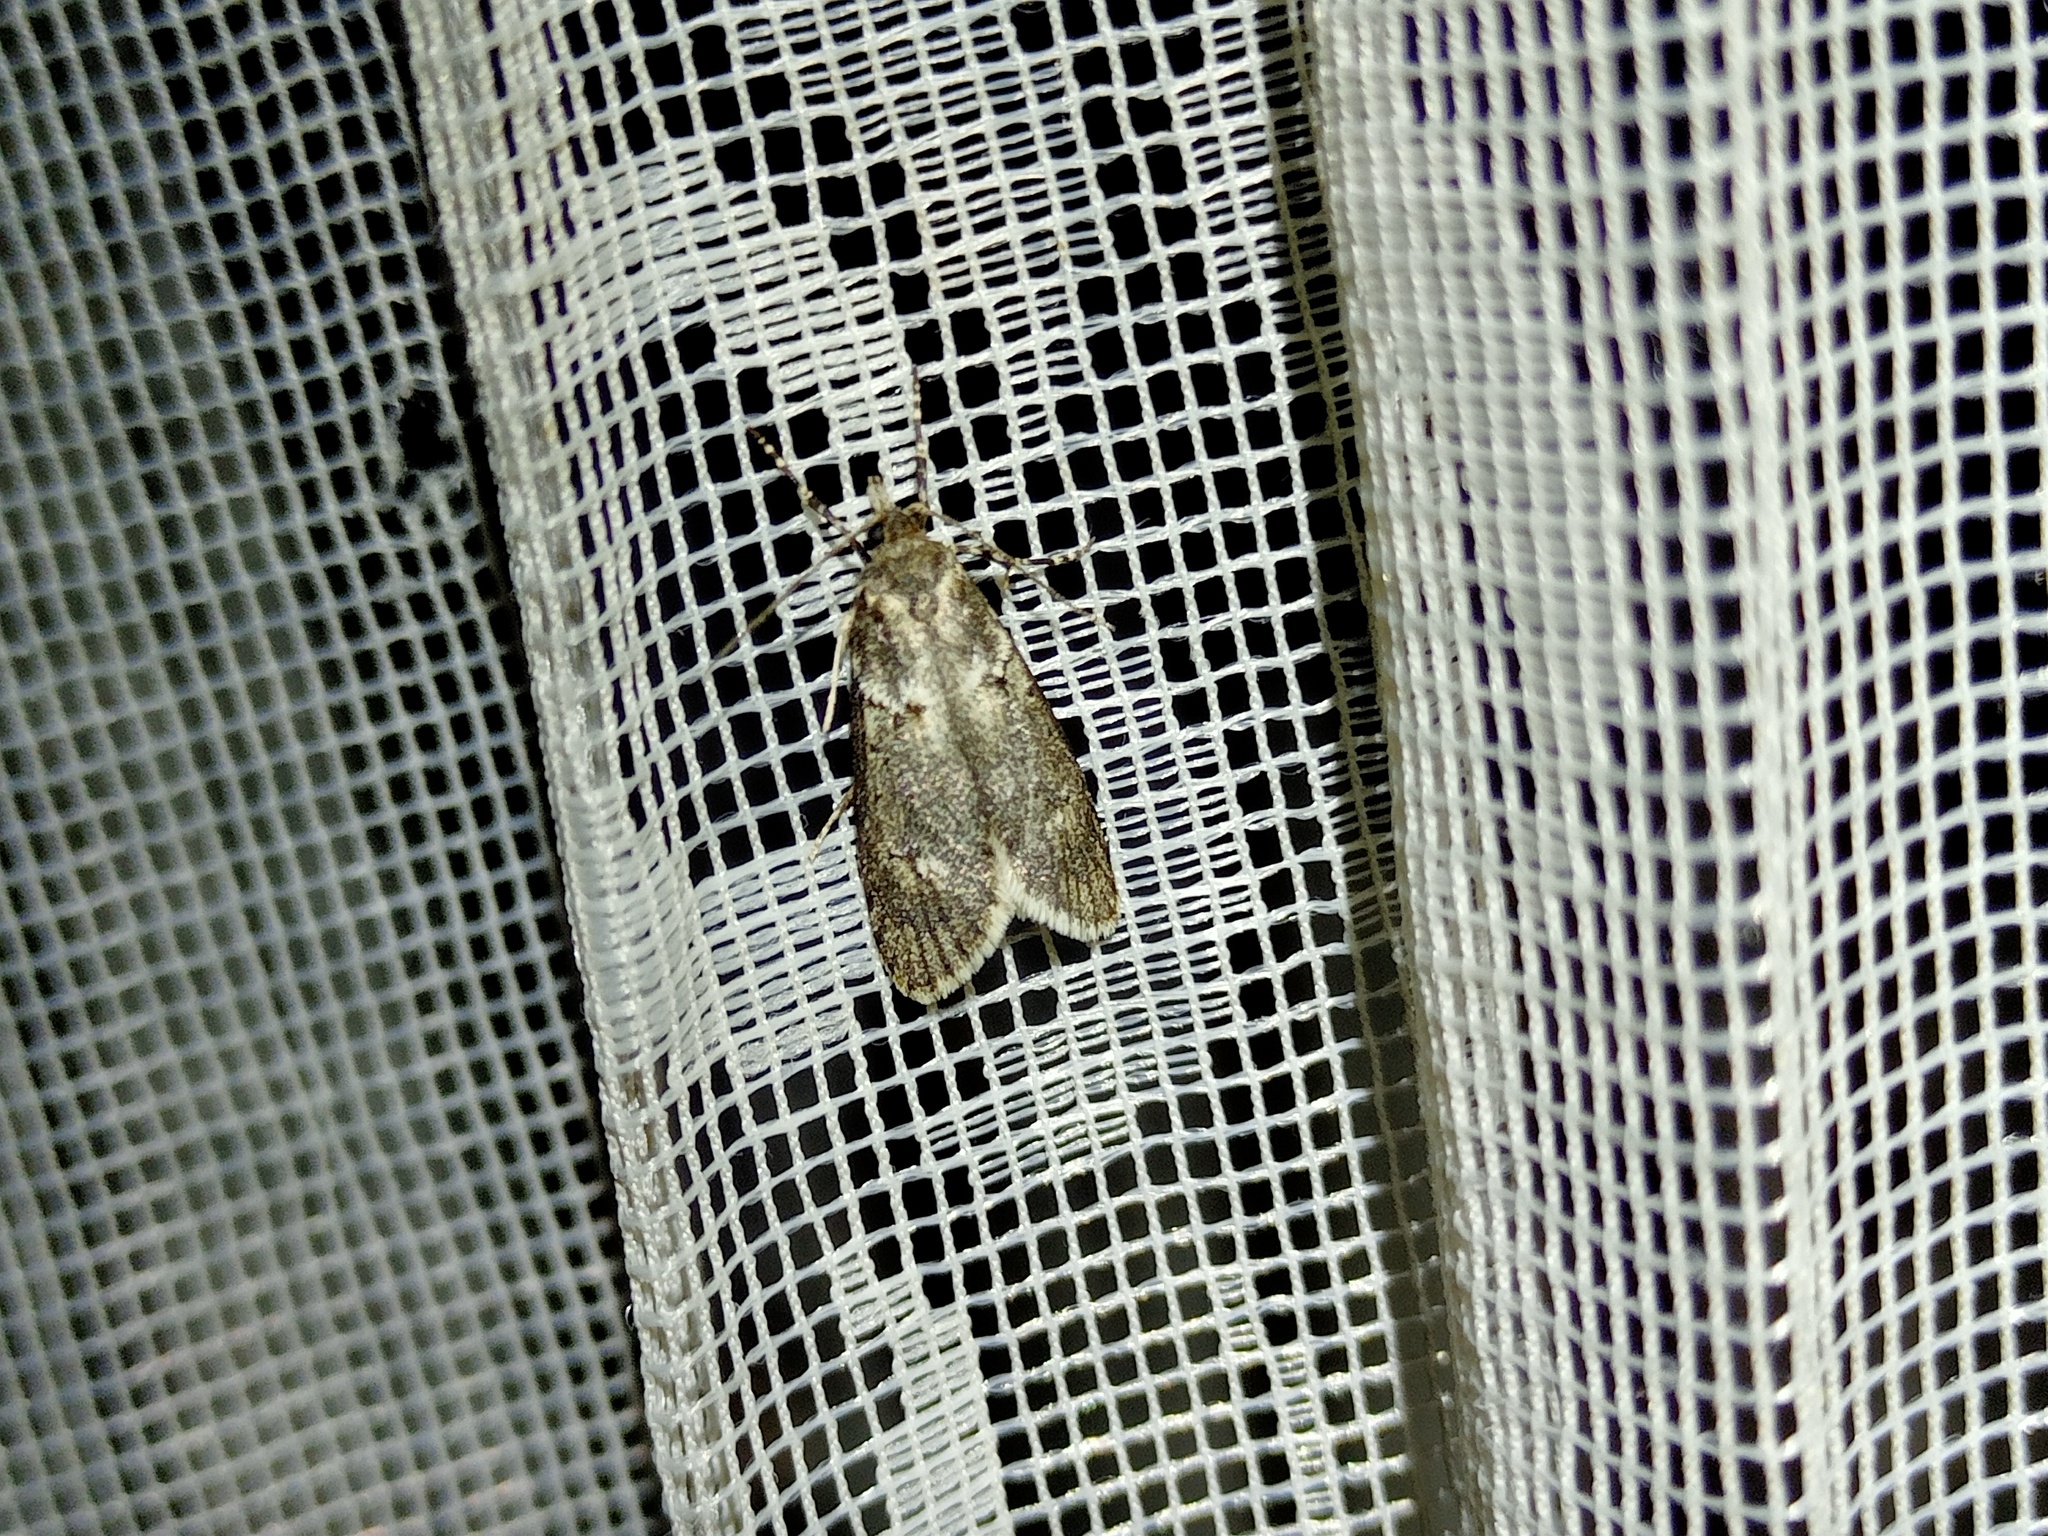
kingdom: Animalia
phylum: Arthropoda
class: Insecta
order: Lepidoptera
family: Lypusidae
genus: Diurnea
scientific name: Diurnea fagella
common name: March tubic
